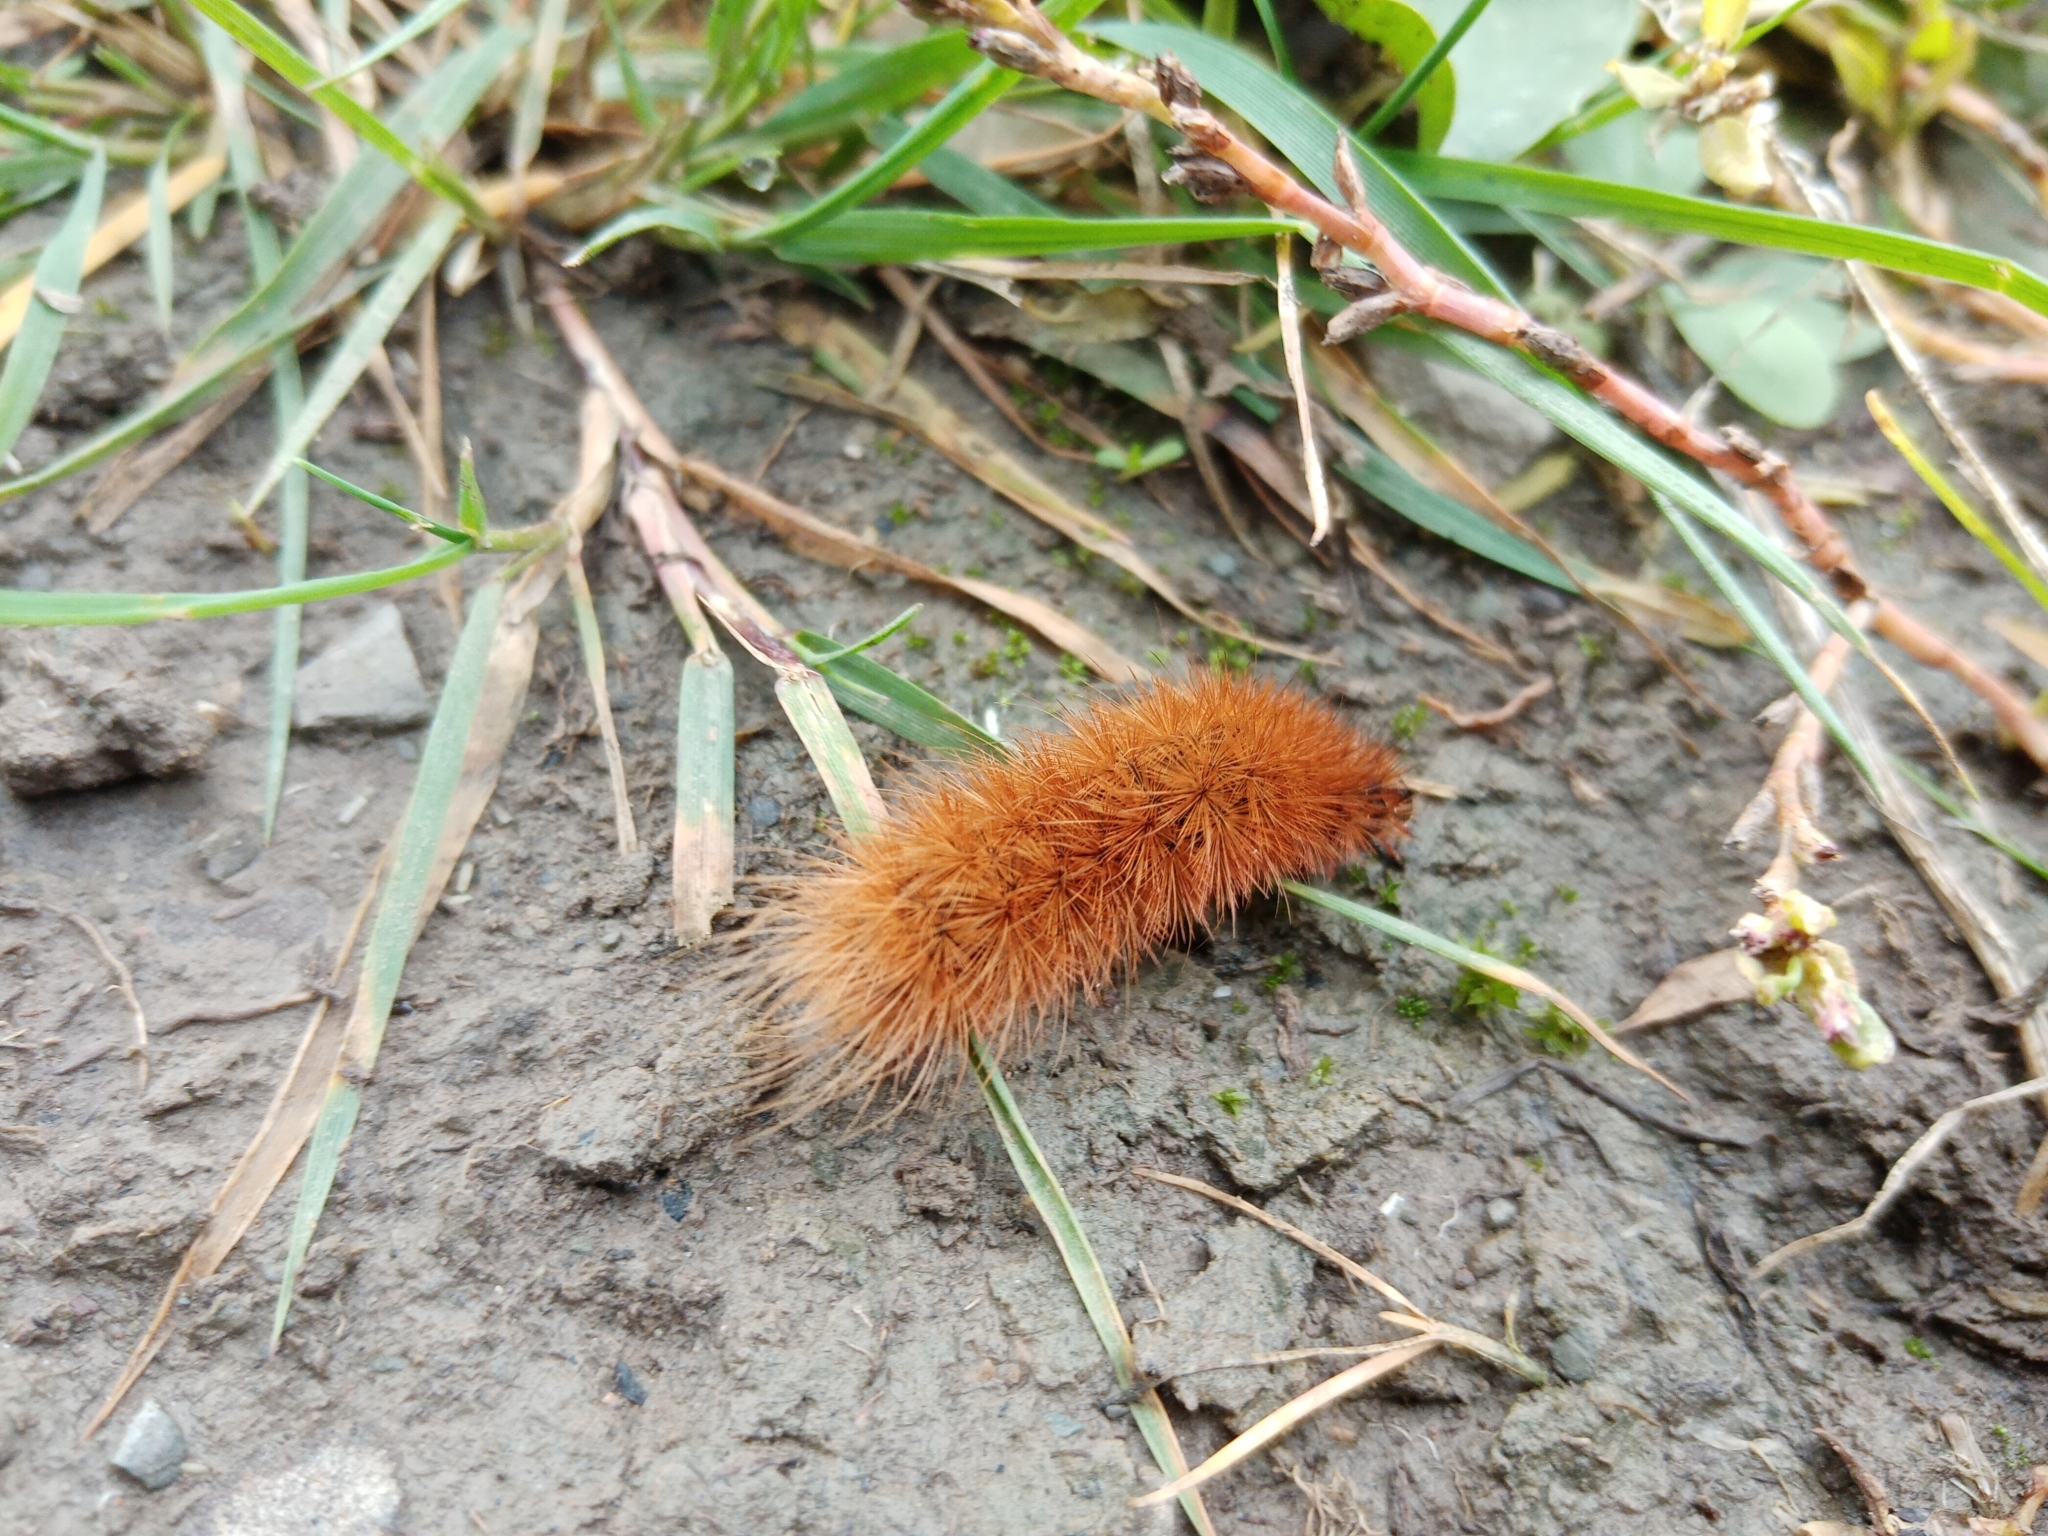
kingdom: Animalia
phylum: Arthropoda
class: Insecta
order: Lepidoptera
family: Erebidae
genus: Phragmatobia
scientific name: Phragmatobia fuliginosa
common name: Ruby tiger
